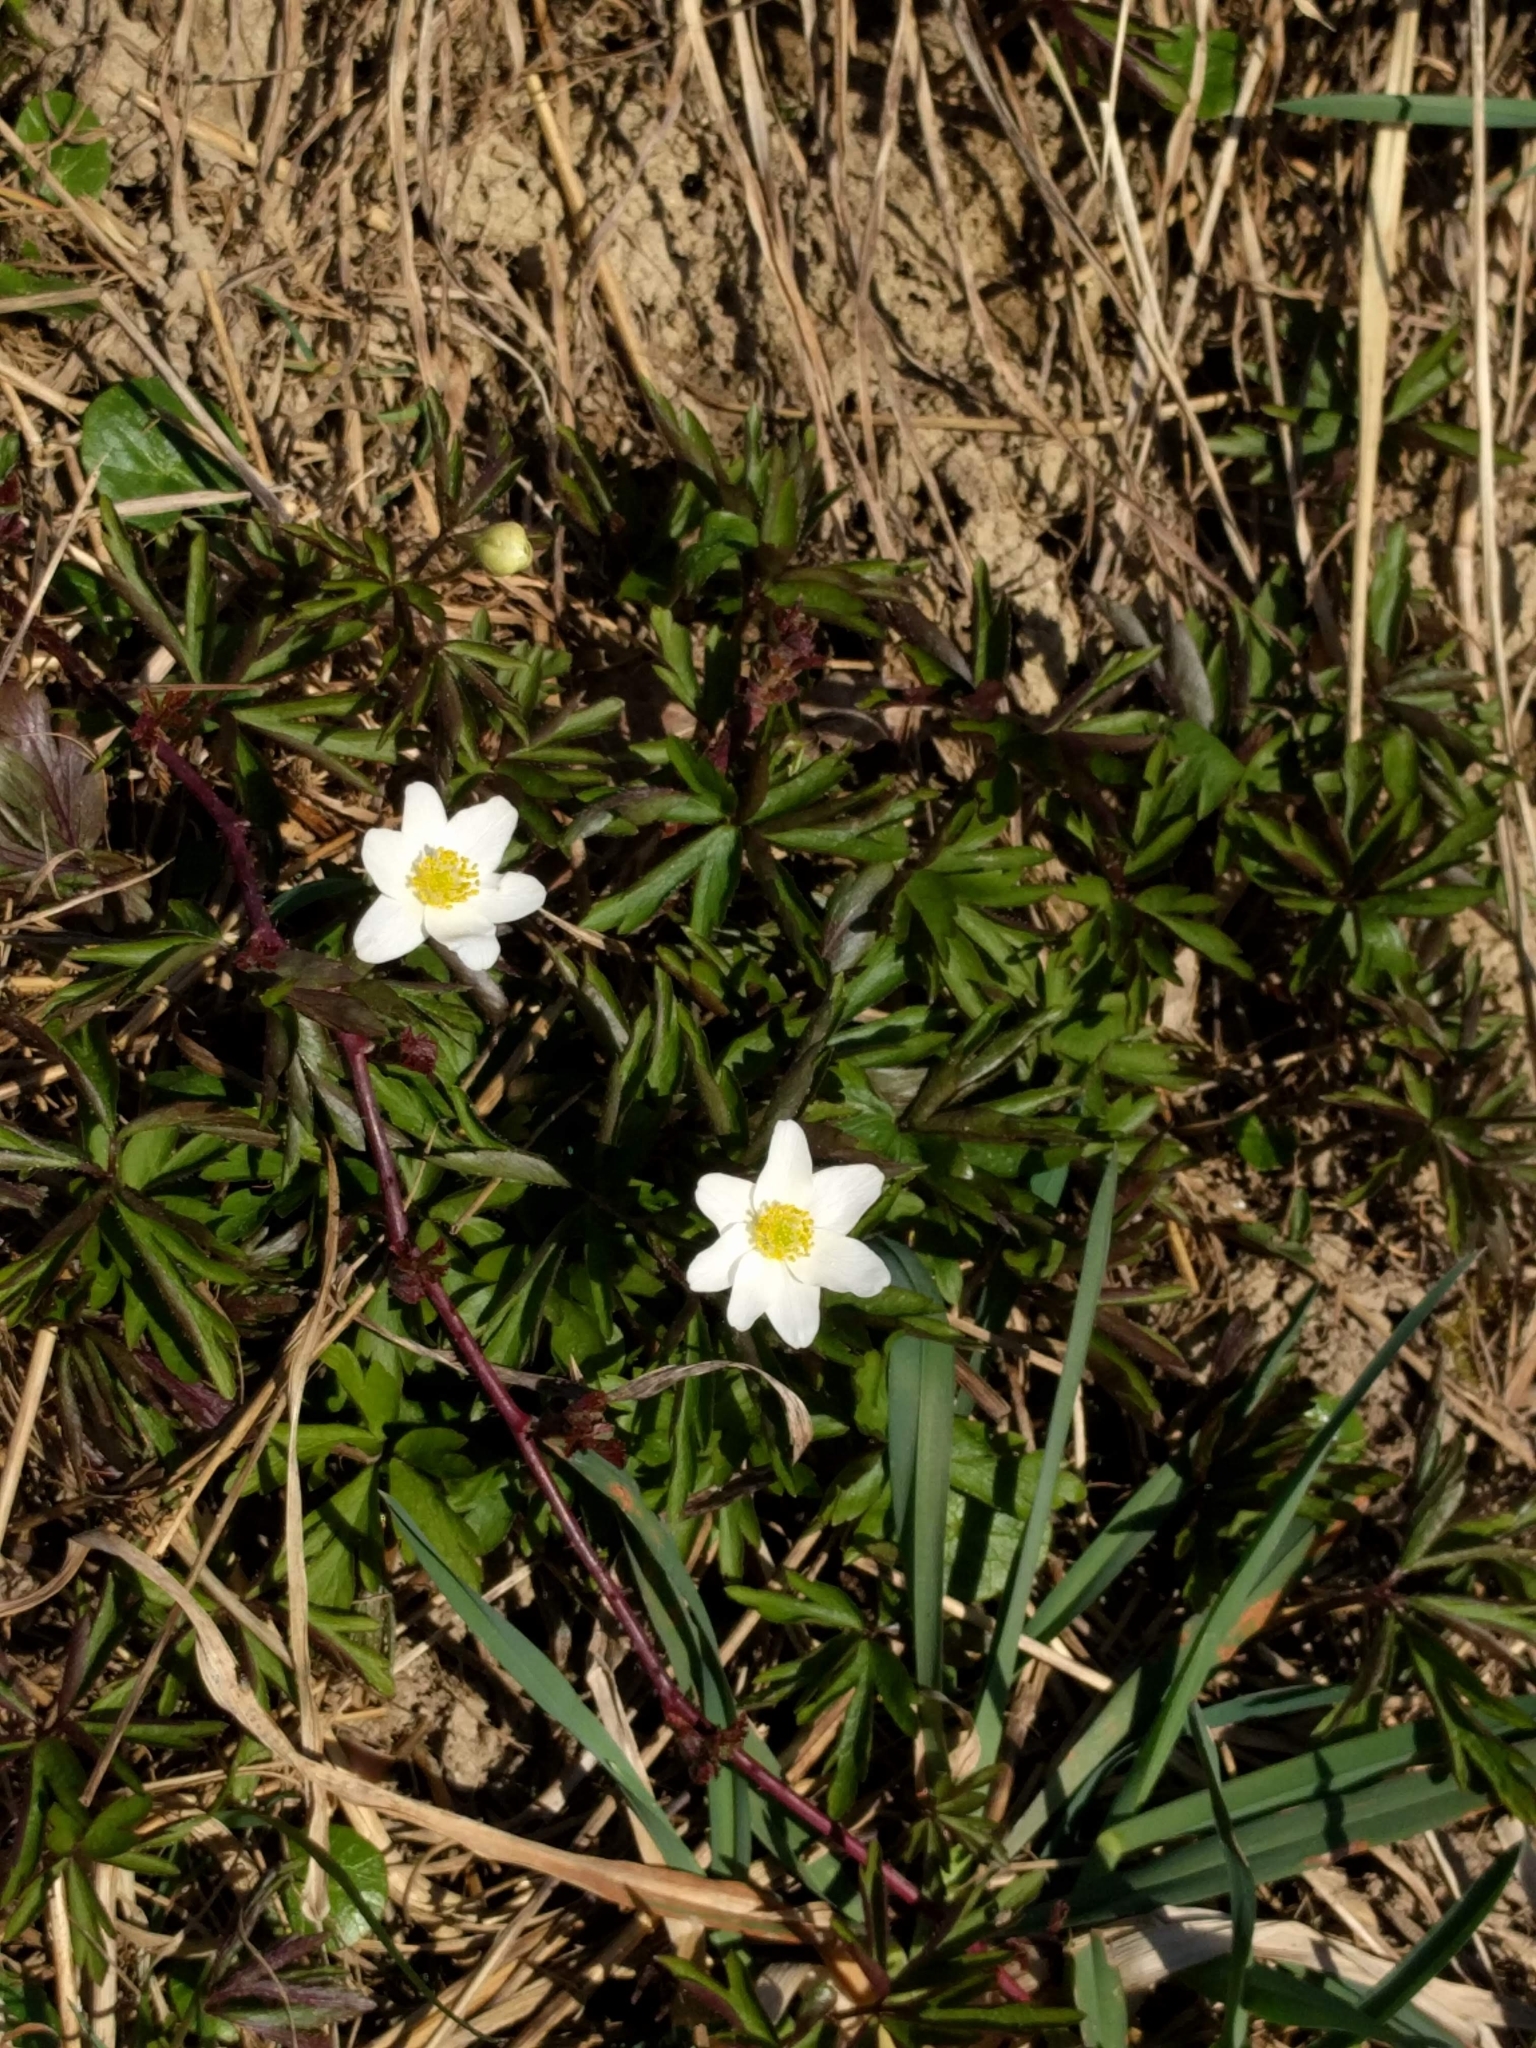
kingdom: Plantae
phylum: Tracheophyta
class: Magnoliopsida
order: Ranunculales
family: Ranunculaceae
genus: Anemone
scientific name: Anemone nemorosa
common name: Wood anemone
